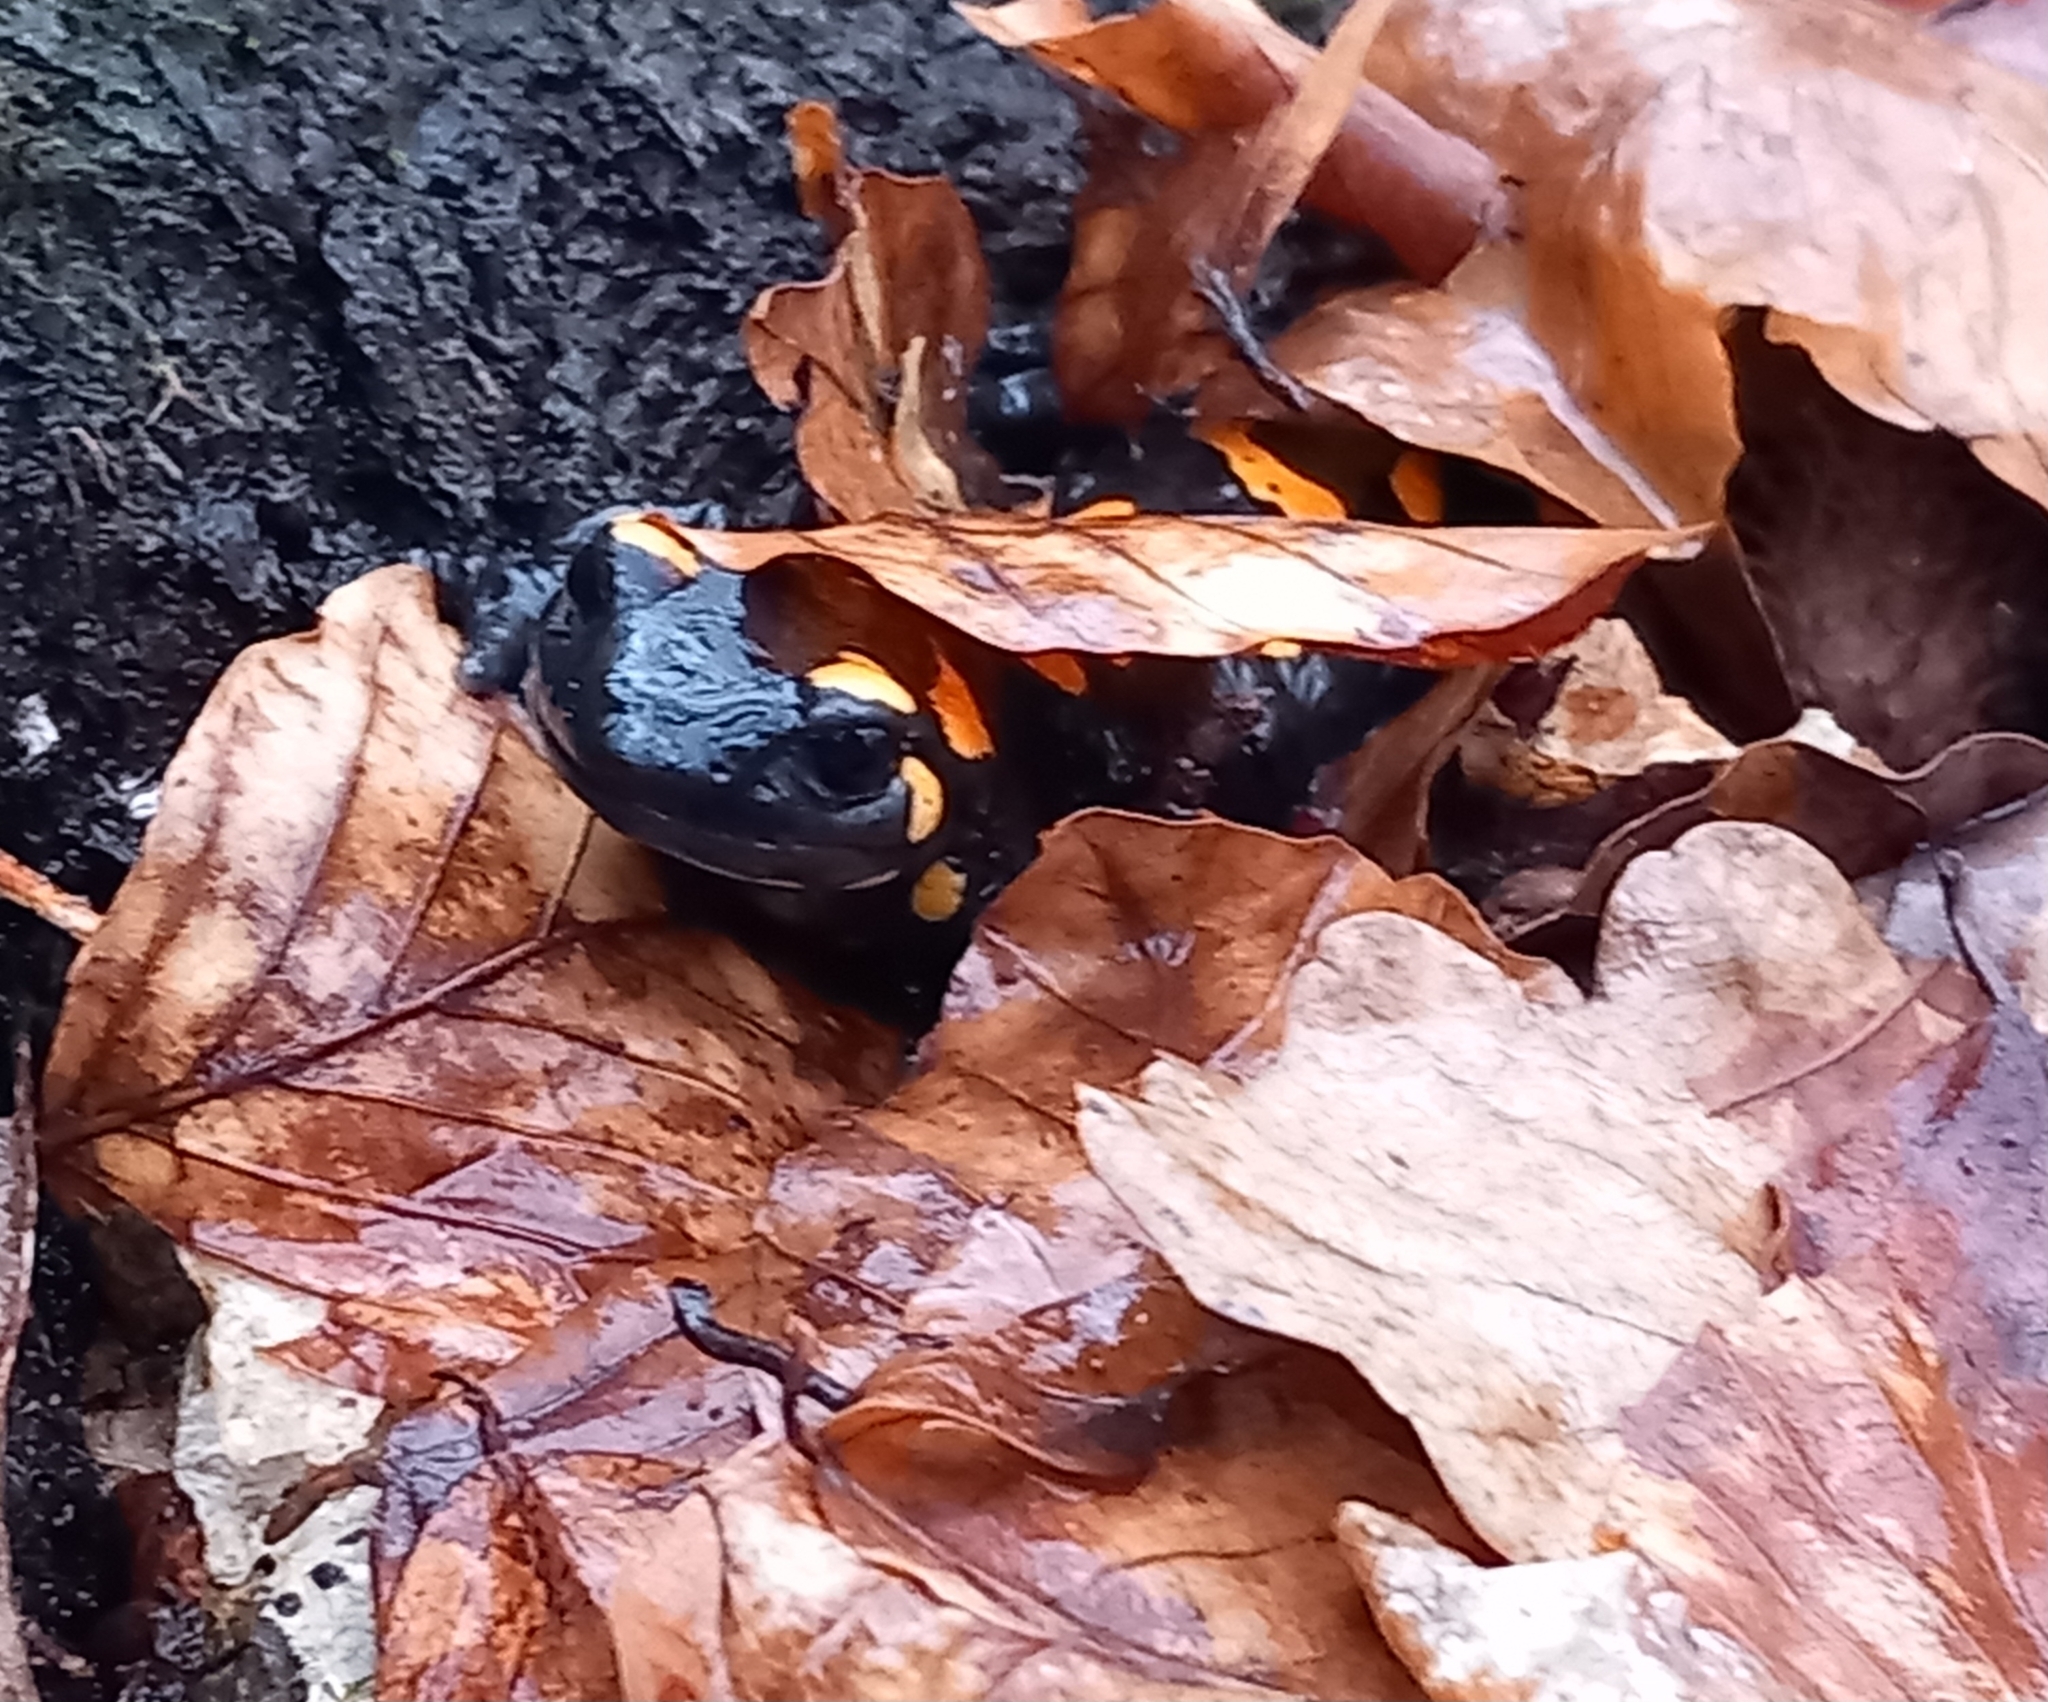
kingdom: Animalia
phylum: Chordata
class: Amphibia
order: Caudata
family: Salamandridae
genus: Salamandra
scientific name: Salamandra salamandra
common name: Fire salamander
